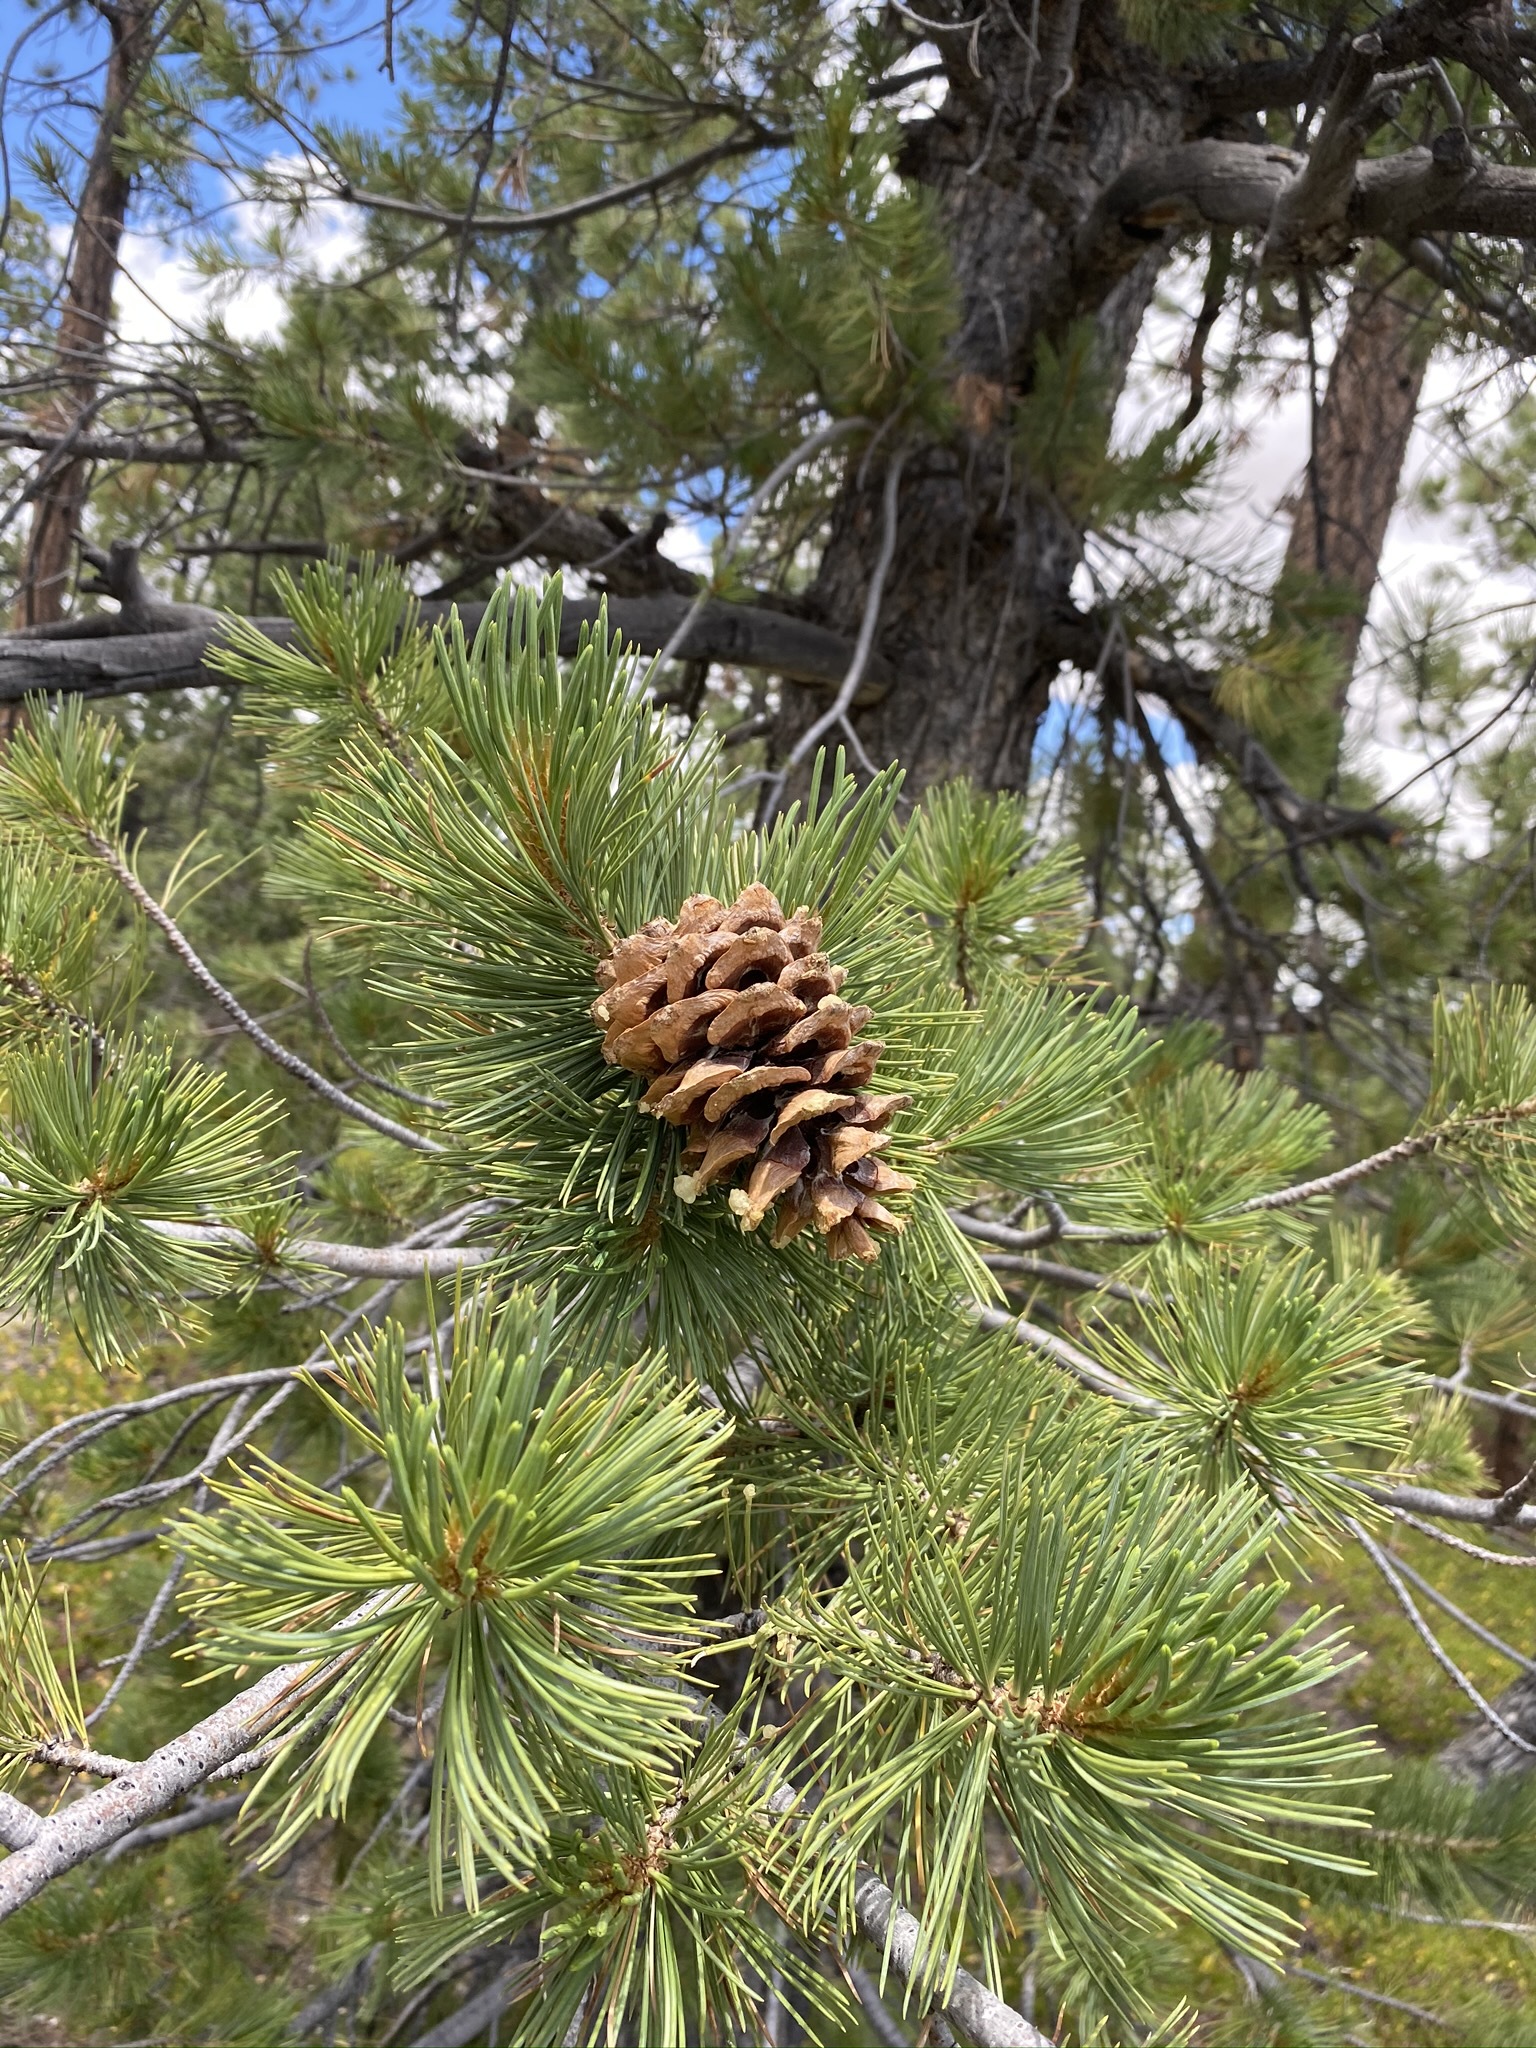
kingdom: Plantae
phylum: Tracheophyta
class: Pinopsida
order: Pinales
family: Pinaceae
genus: Pinus
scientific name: Pinus flexilis
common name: Limber pine
